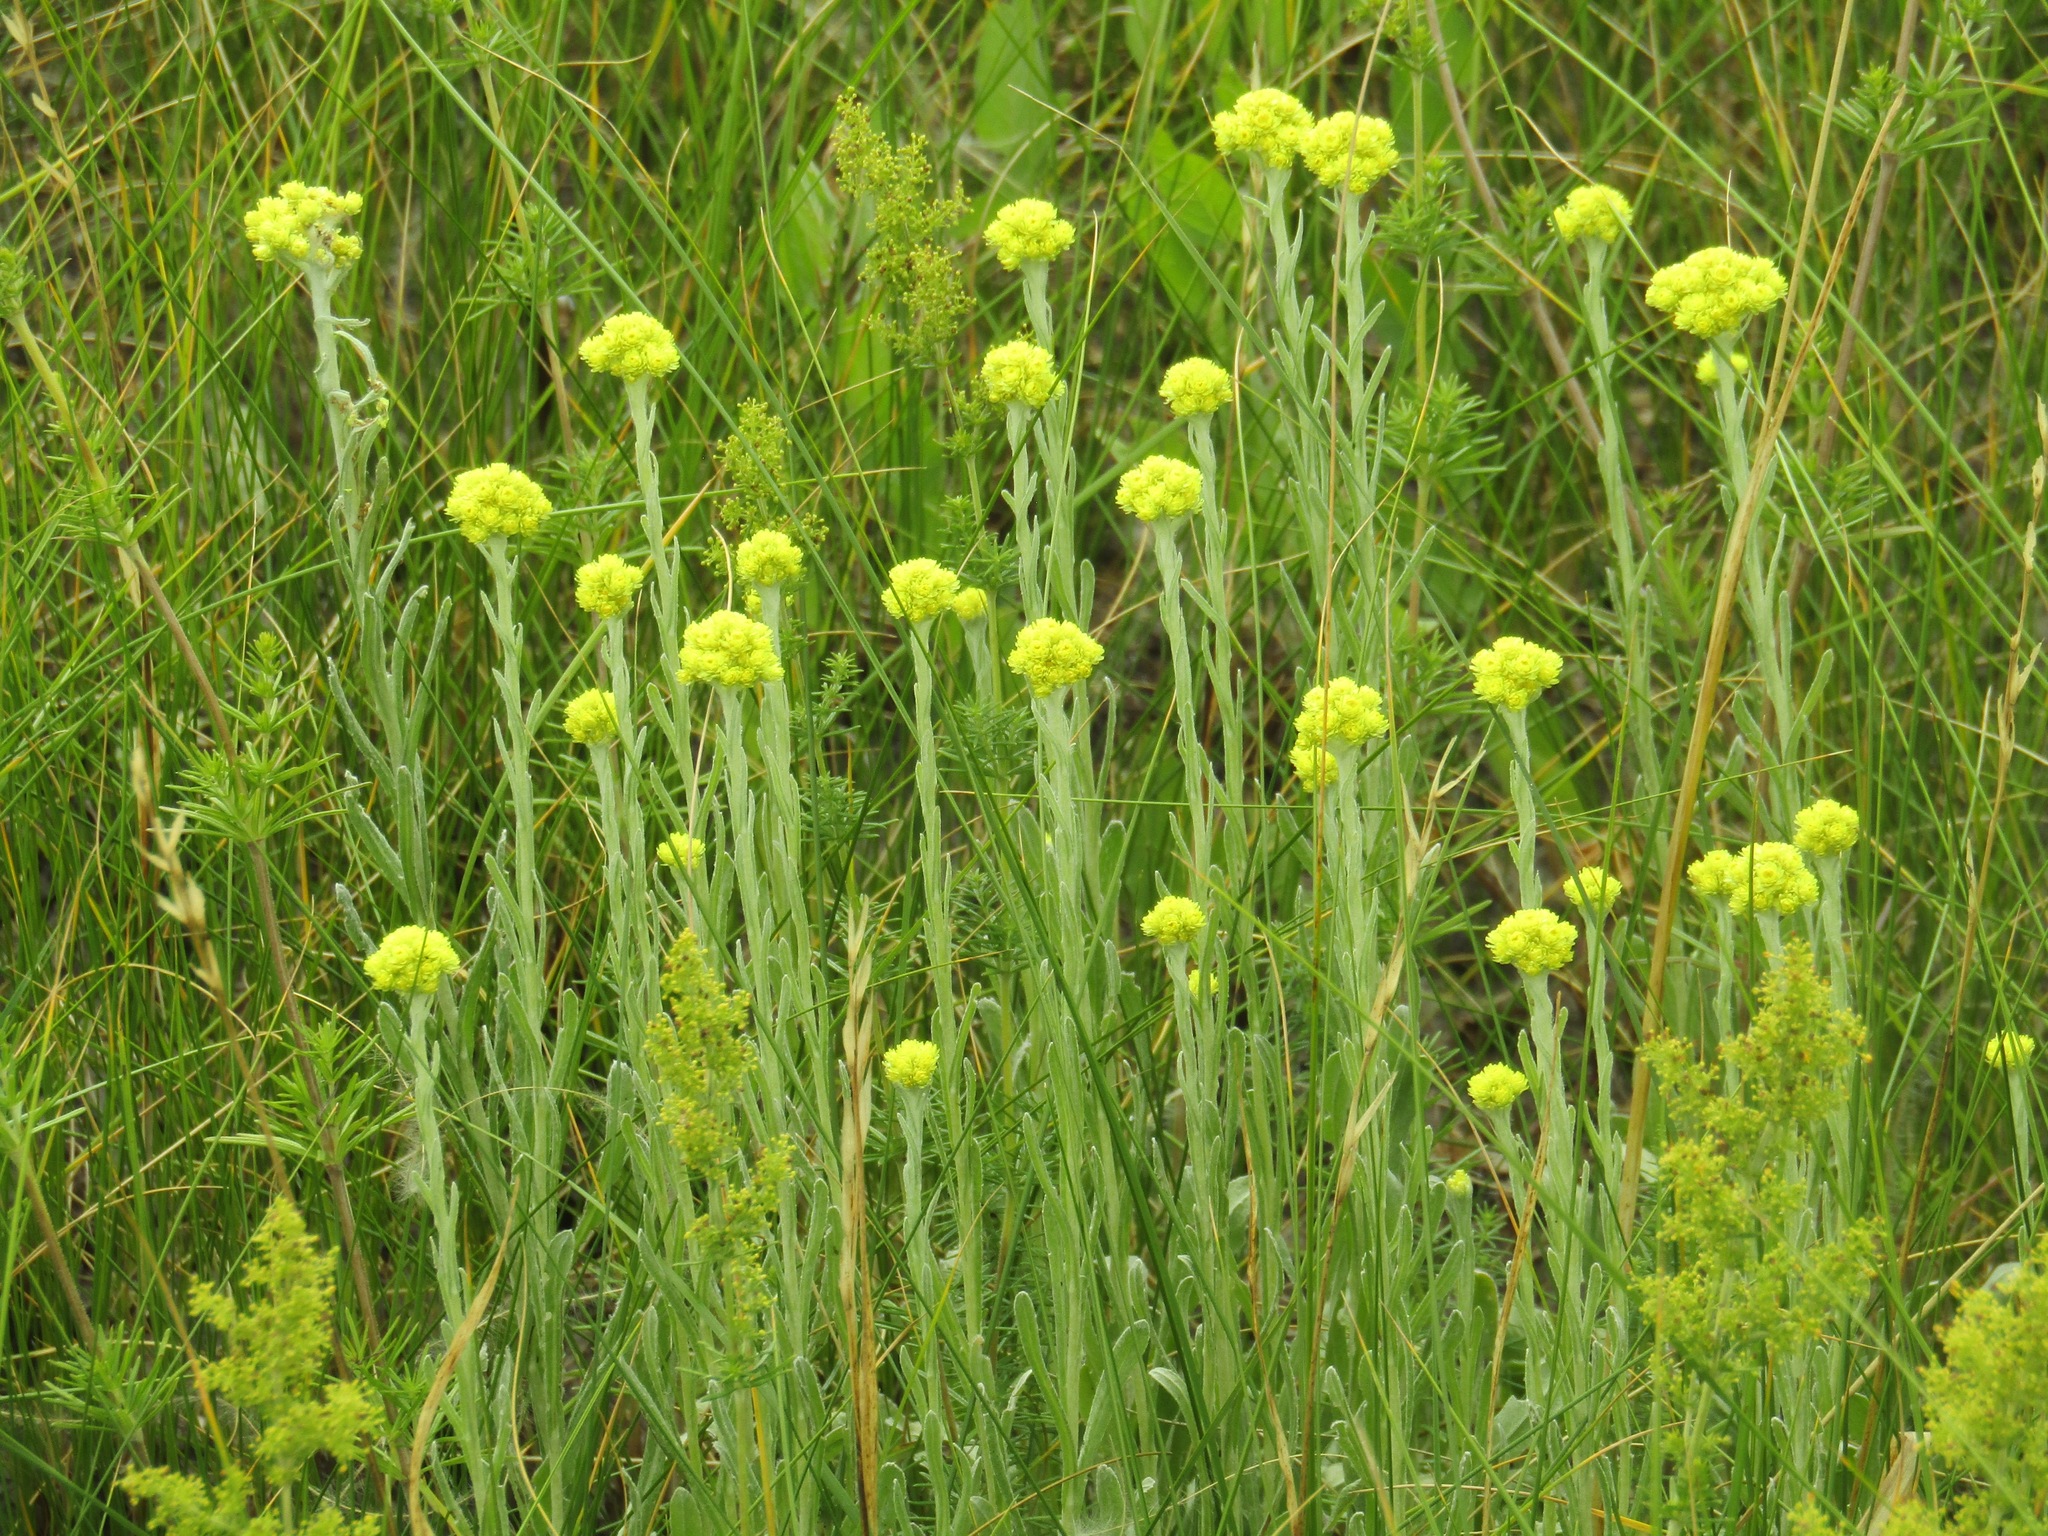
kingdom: Plantae
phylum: Tracheophyta
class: Magnoliopsida
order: Asterales
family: Asteraceae
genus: Helichrysum
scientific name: Helichrysum arenarium
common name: Strawflower
